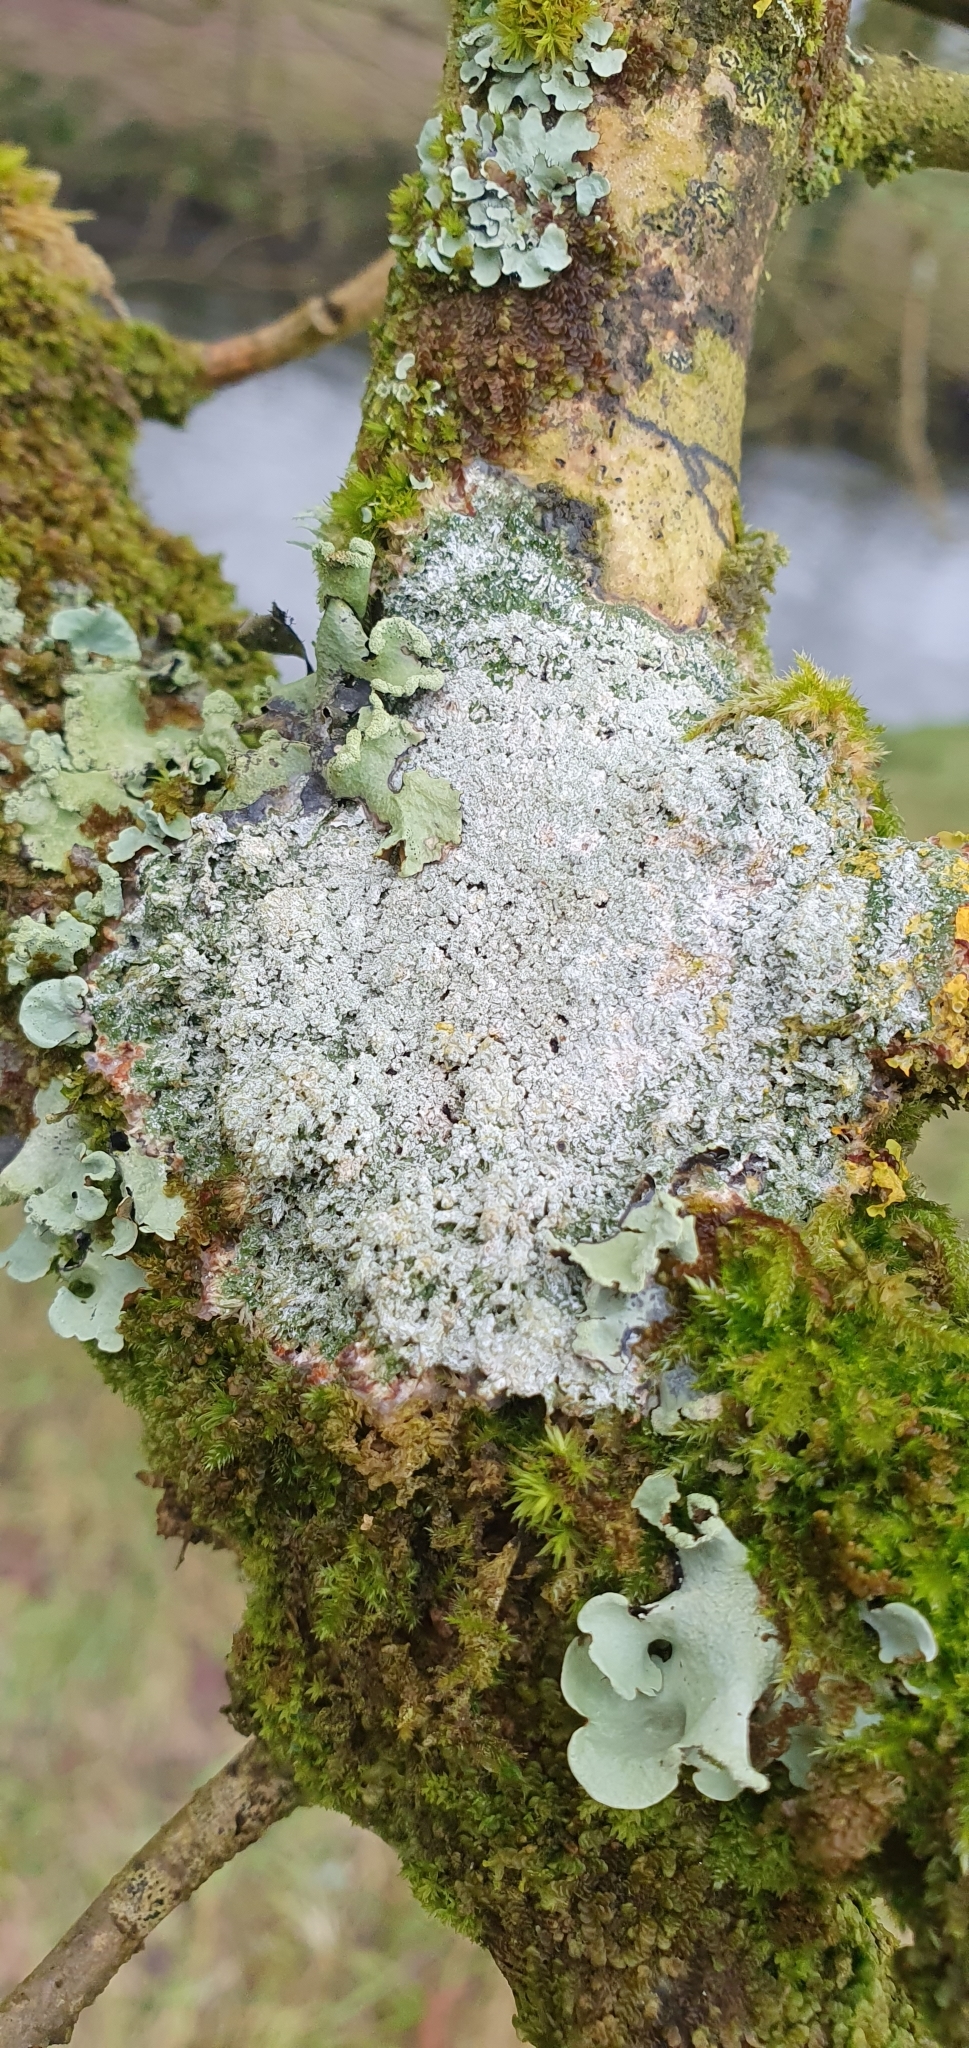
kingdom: Fungi
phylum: Ascomycota
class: Lecanoromycetes
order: Pertusariales
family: Pertusariaceae
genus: Lepra
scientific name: Lepra amara
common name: Bitter wart lichen
